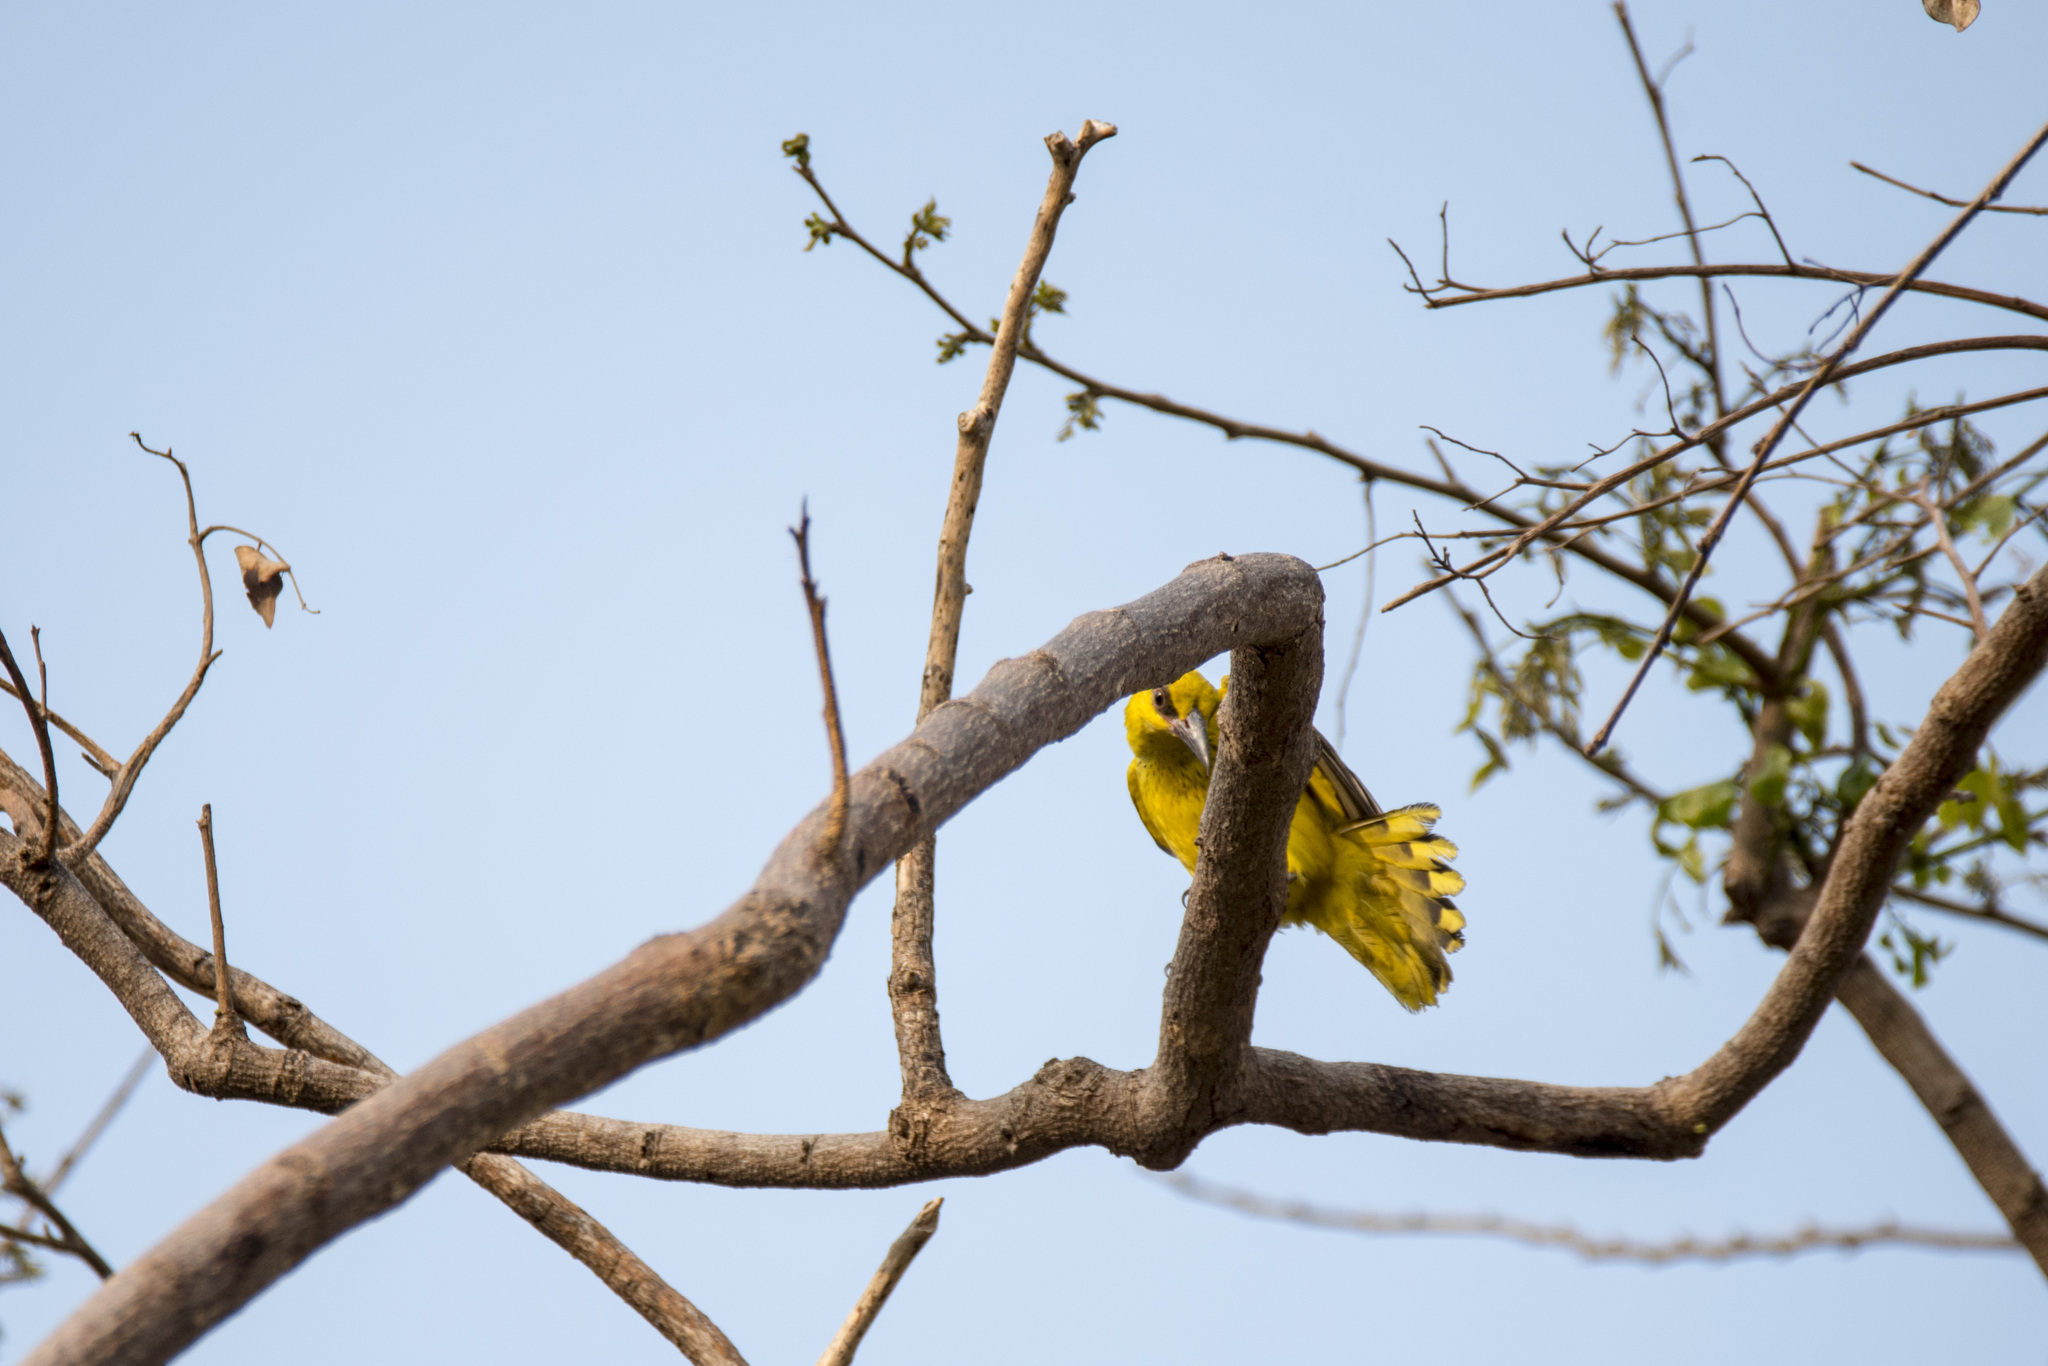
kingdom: Animalia
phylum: Chordata
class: Aves
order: Passeriformes
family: Oriolidae
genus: Oriolus
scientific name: Oriolus chinensis
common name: Black-naped oriole
